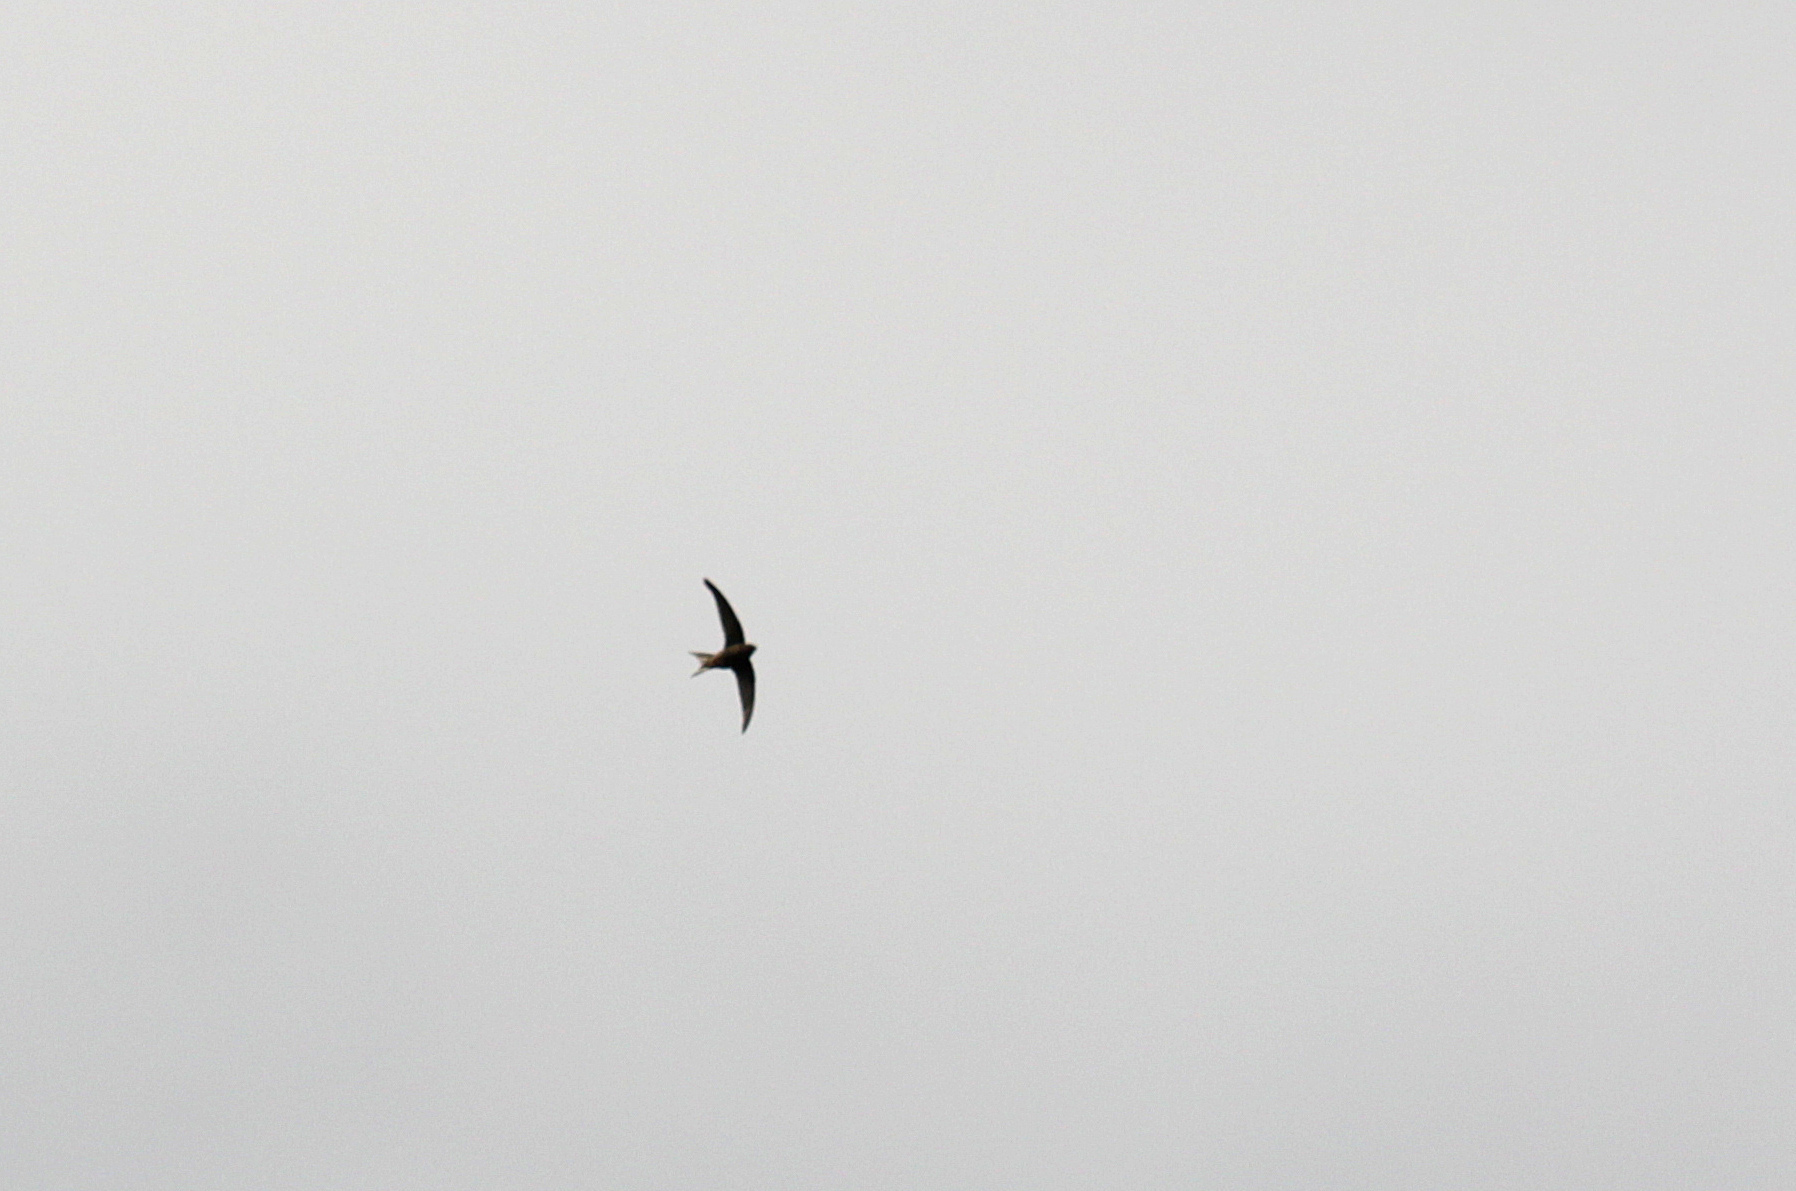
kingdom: Animalia
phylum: Chordata
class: Aves
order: Apodiformes
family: Apodidae
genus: Apus
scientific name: Apus apus
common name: Common swift
